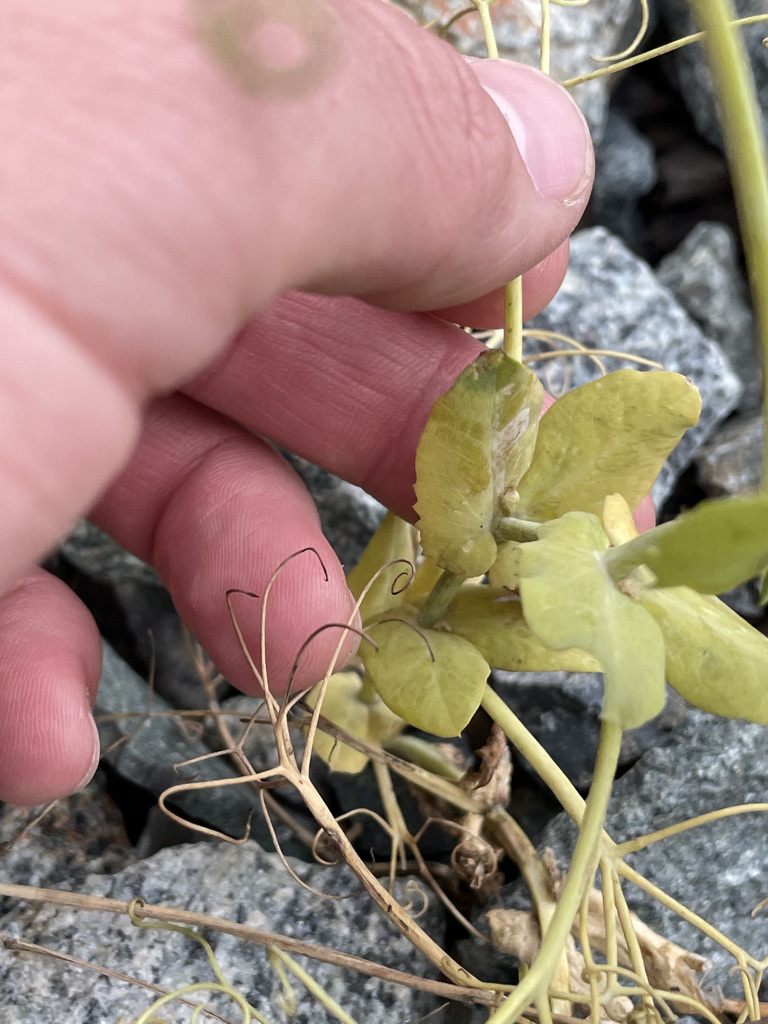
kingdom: Plantae
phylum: Tracheophyta
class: Magnoliopsida
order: Fabales
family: Fabaceae
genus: Lathyrus
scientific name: Lathyrus oleraceus
